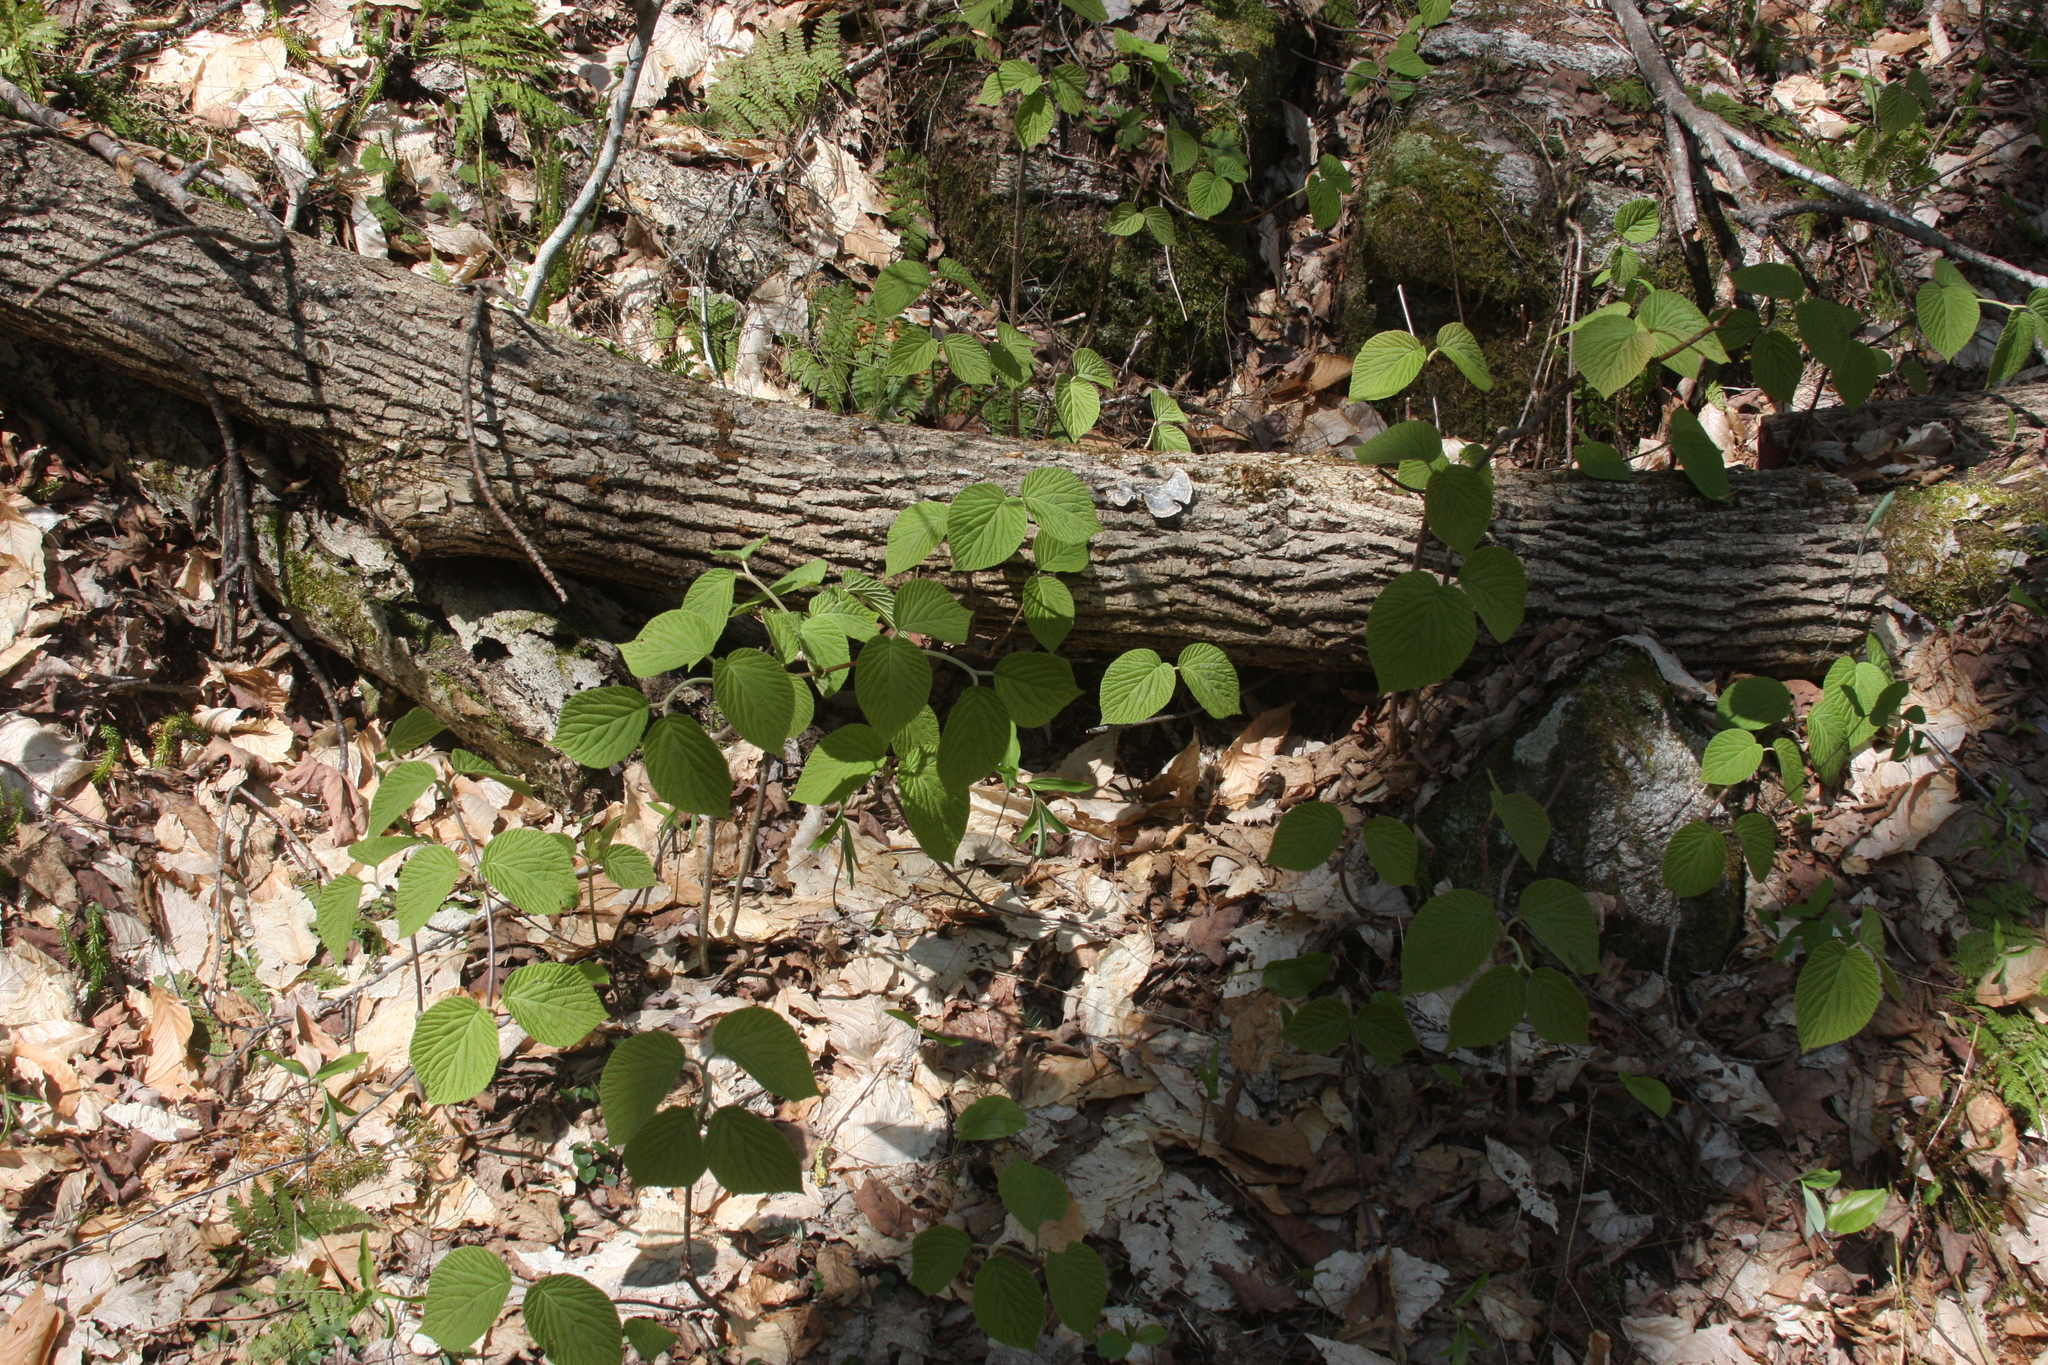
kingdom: Plantae
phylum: Tracheophyta
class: Magnoliopsida
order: Dipsacales
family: Viburnaceae
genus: Viburnum
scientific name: Viburnum lantanoides
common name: Hobblebush
